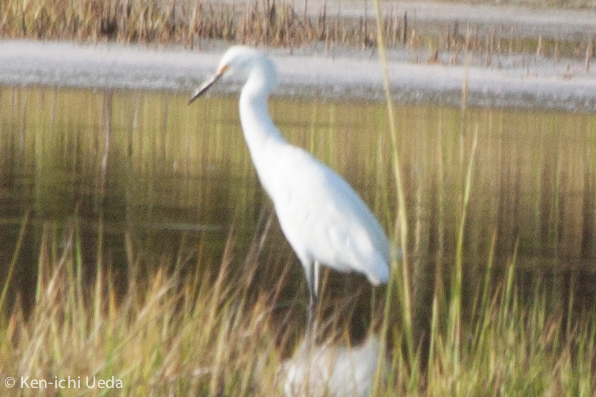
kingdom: Animalia
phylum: Chordata
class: Aves
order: Pelecaniformes
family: Ardeidae
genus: Egretta
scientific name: Egretta thula
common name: Snowy egret
